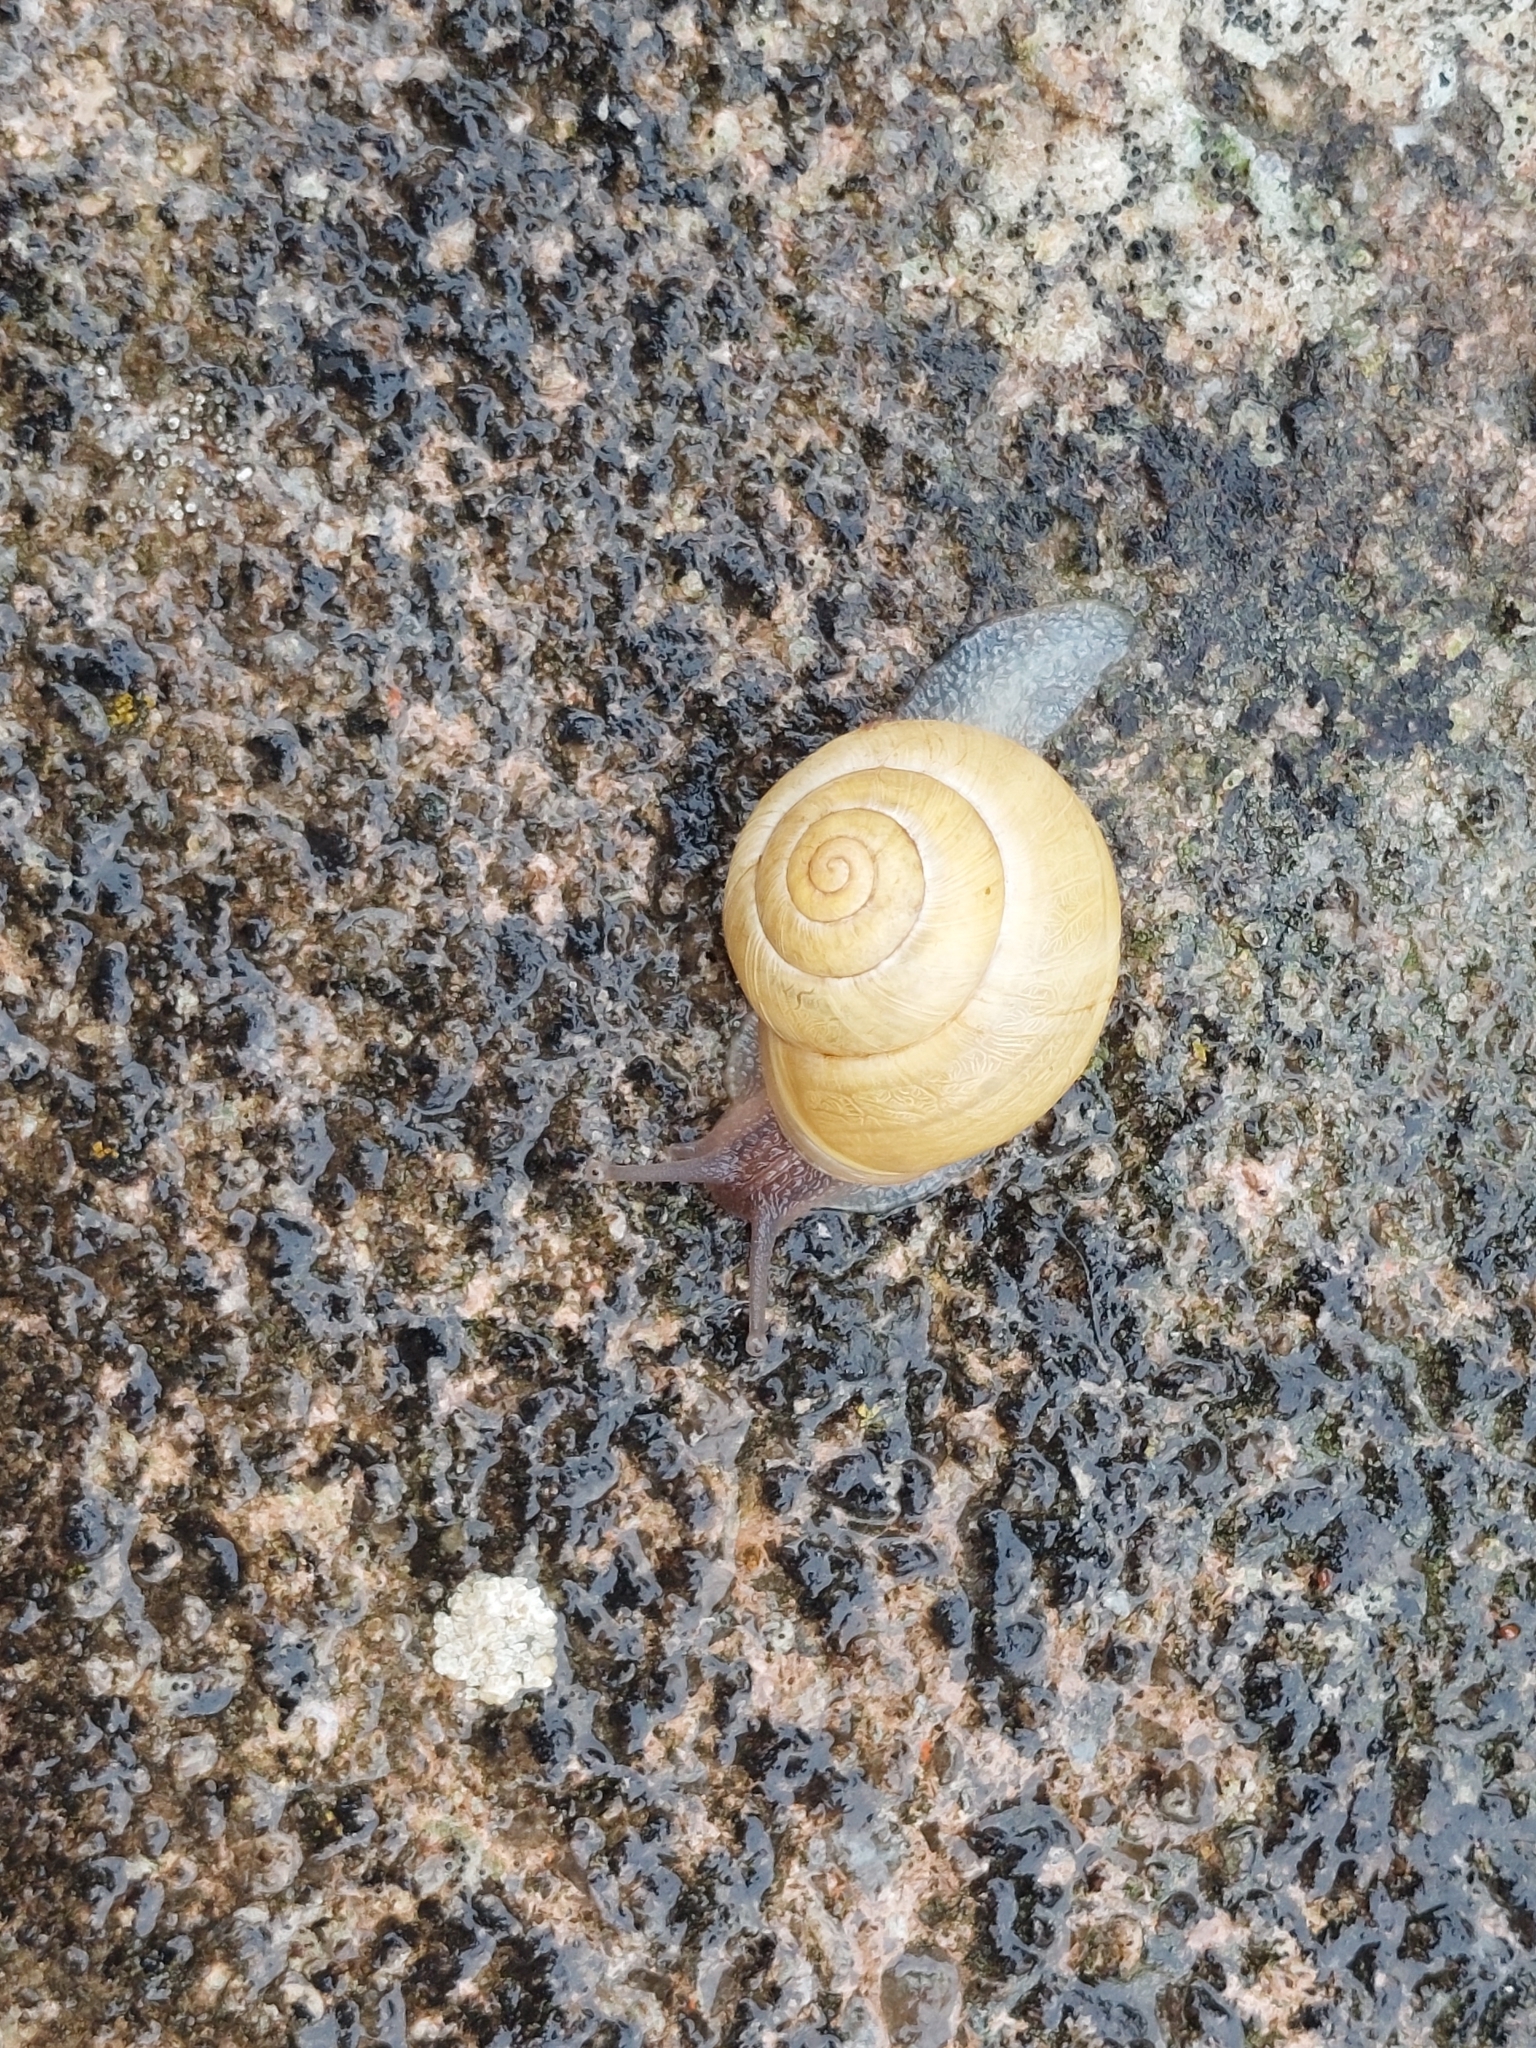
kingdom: Animalia
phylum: Mollusca
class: Gastropoda
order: Stylommatophora
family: Helicidae
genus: Cepaea
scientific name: Cepaea hortensis
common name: White-lip gardensnail
